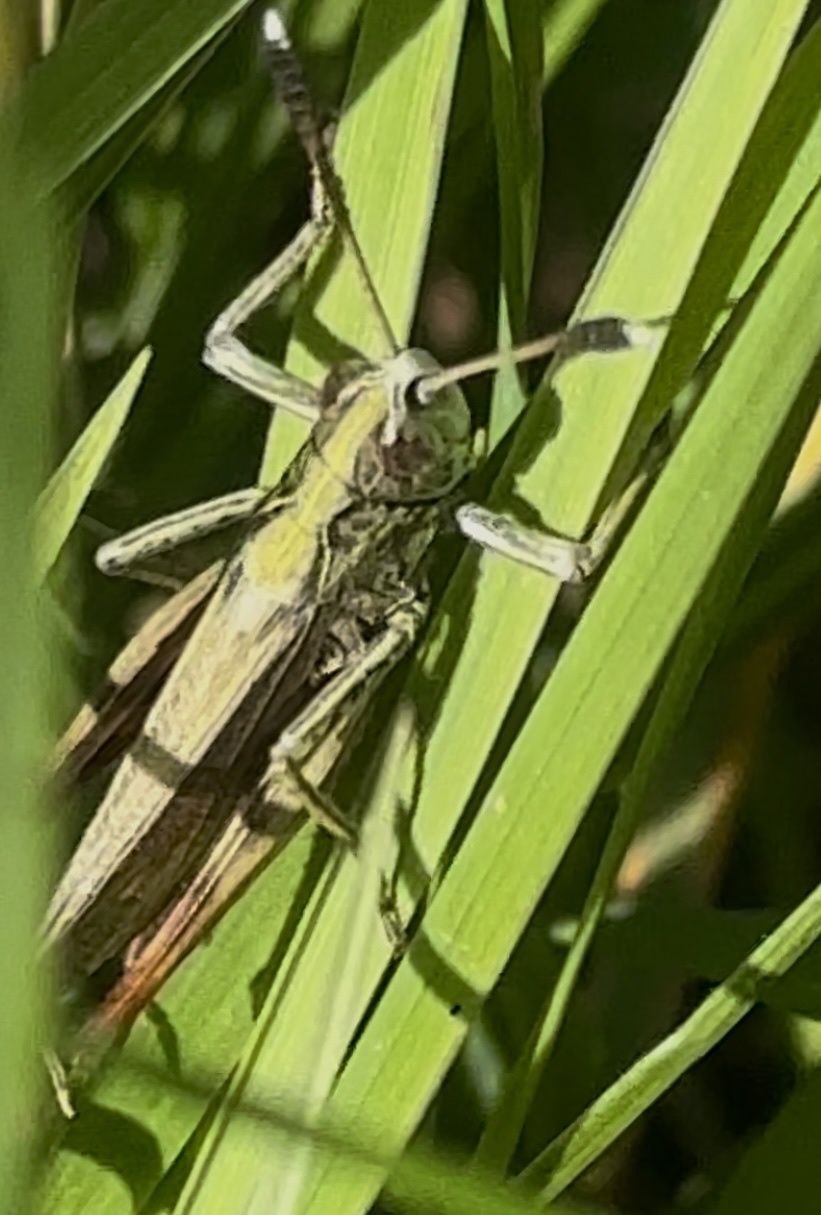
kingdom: Animalia
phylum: Arthropoda
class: Insecta
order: Orthoptera
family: Acrididae
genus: Gomphocerippus
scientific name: Gomphocerippus rufus
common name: Rufous grasshopper
